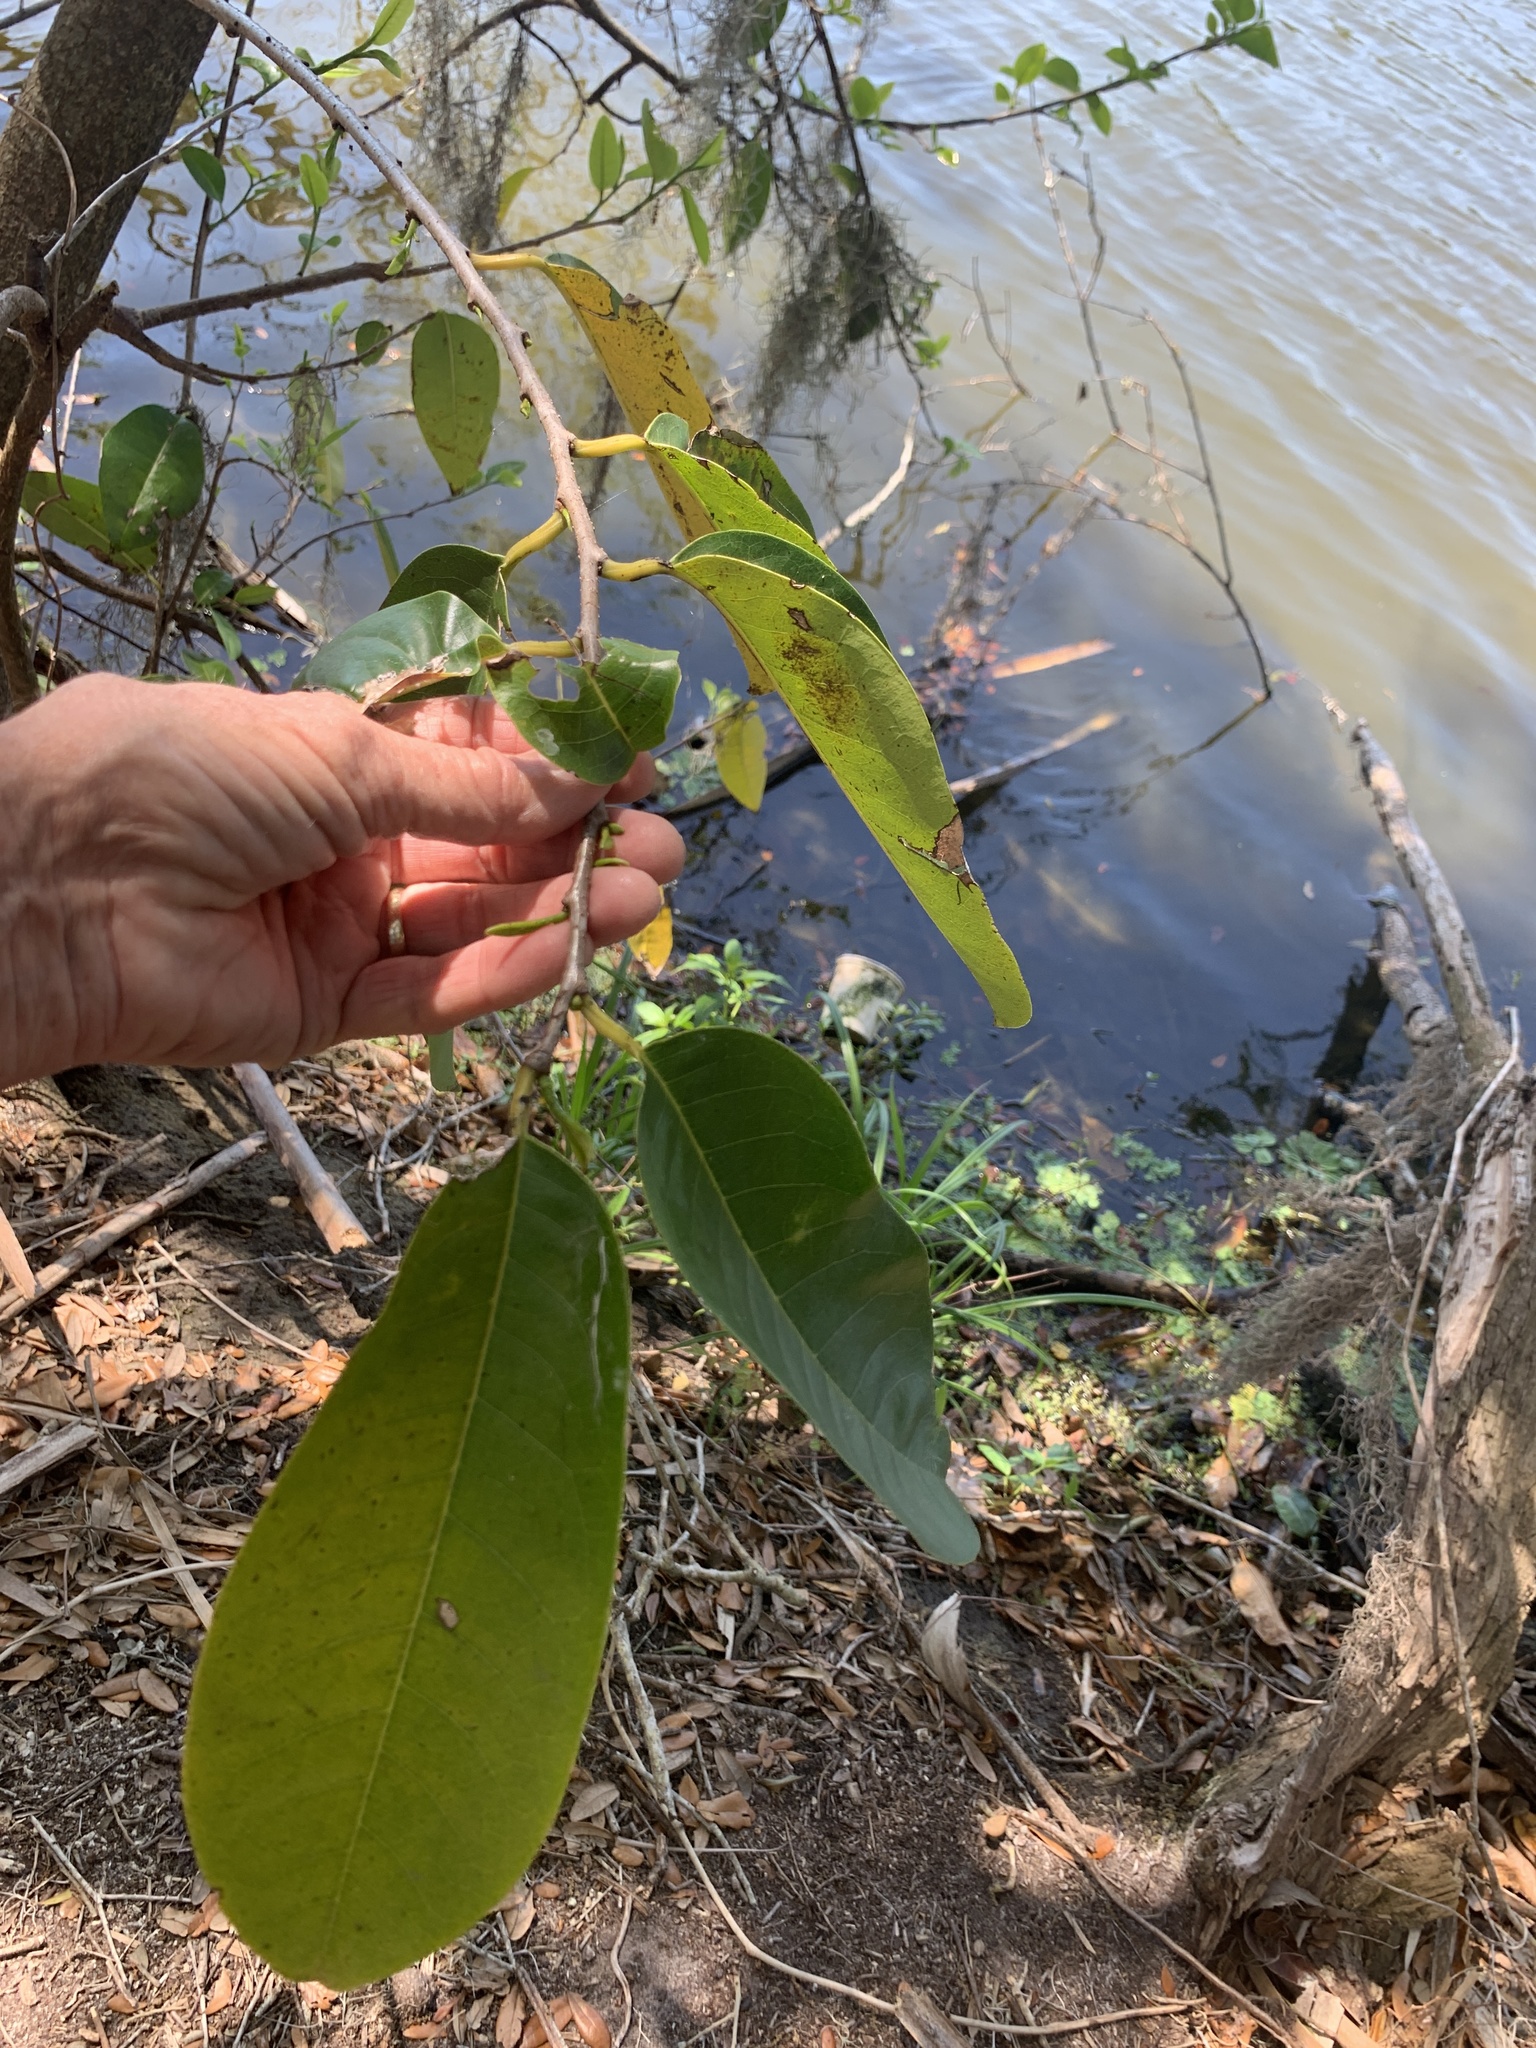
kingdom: Plantae
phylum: Tracheophyta
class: Magnoliopsida
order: Magnoliales
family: Annonaceae
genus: Annona
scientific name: Annona glabra
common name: Monkey apple
